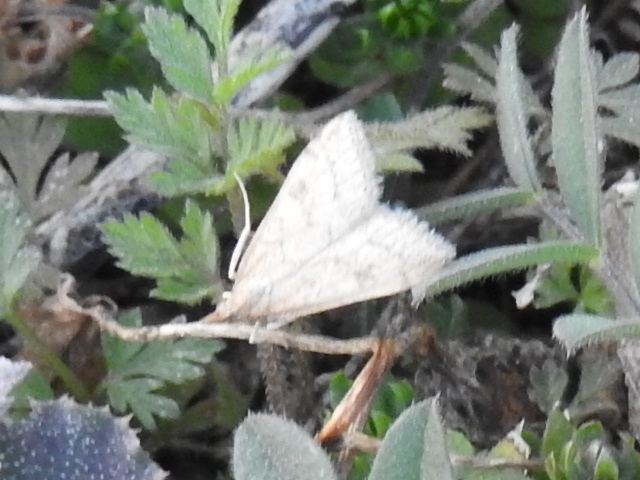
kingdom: Animalia
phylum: Arthropoda
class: Insecta
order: Lepidoptera
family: Crambidae
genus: Udea
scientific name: Udea rubigalis
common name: Celery leaftier moth
